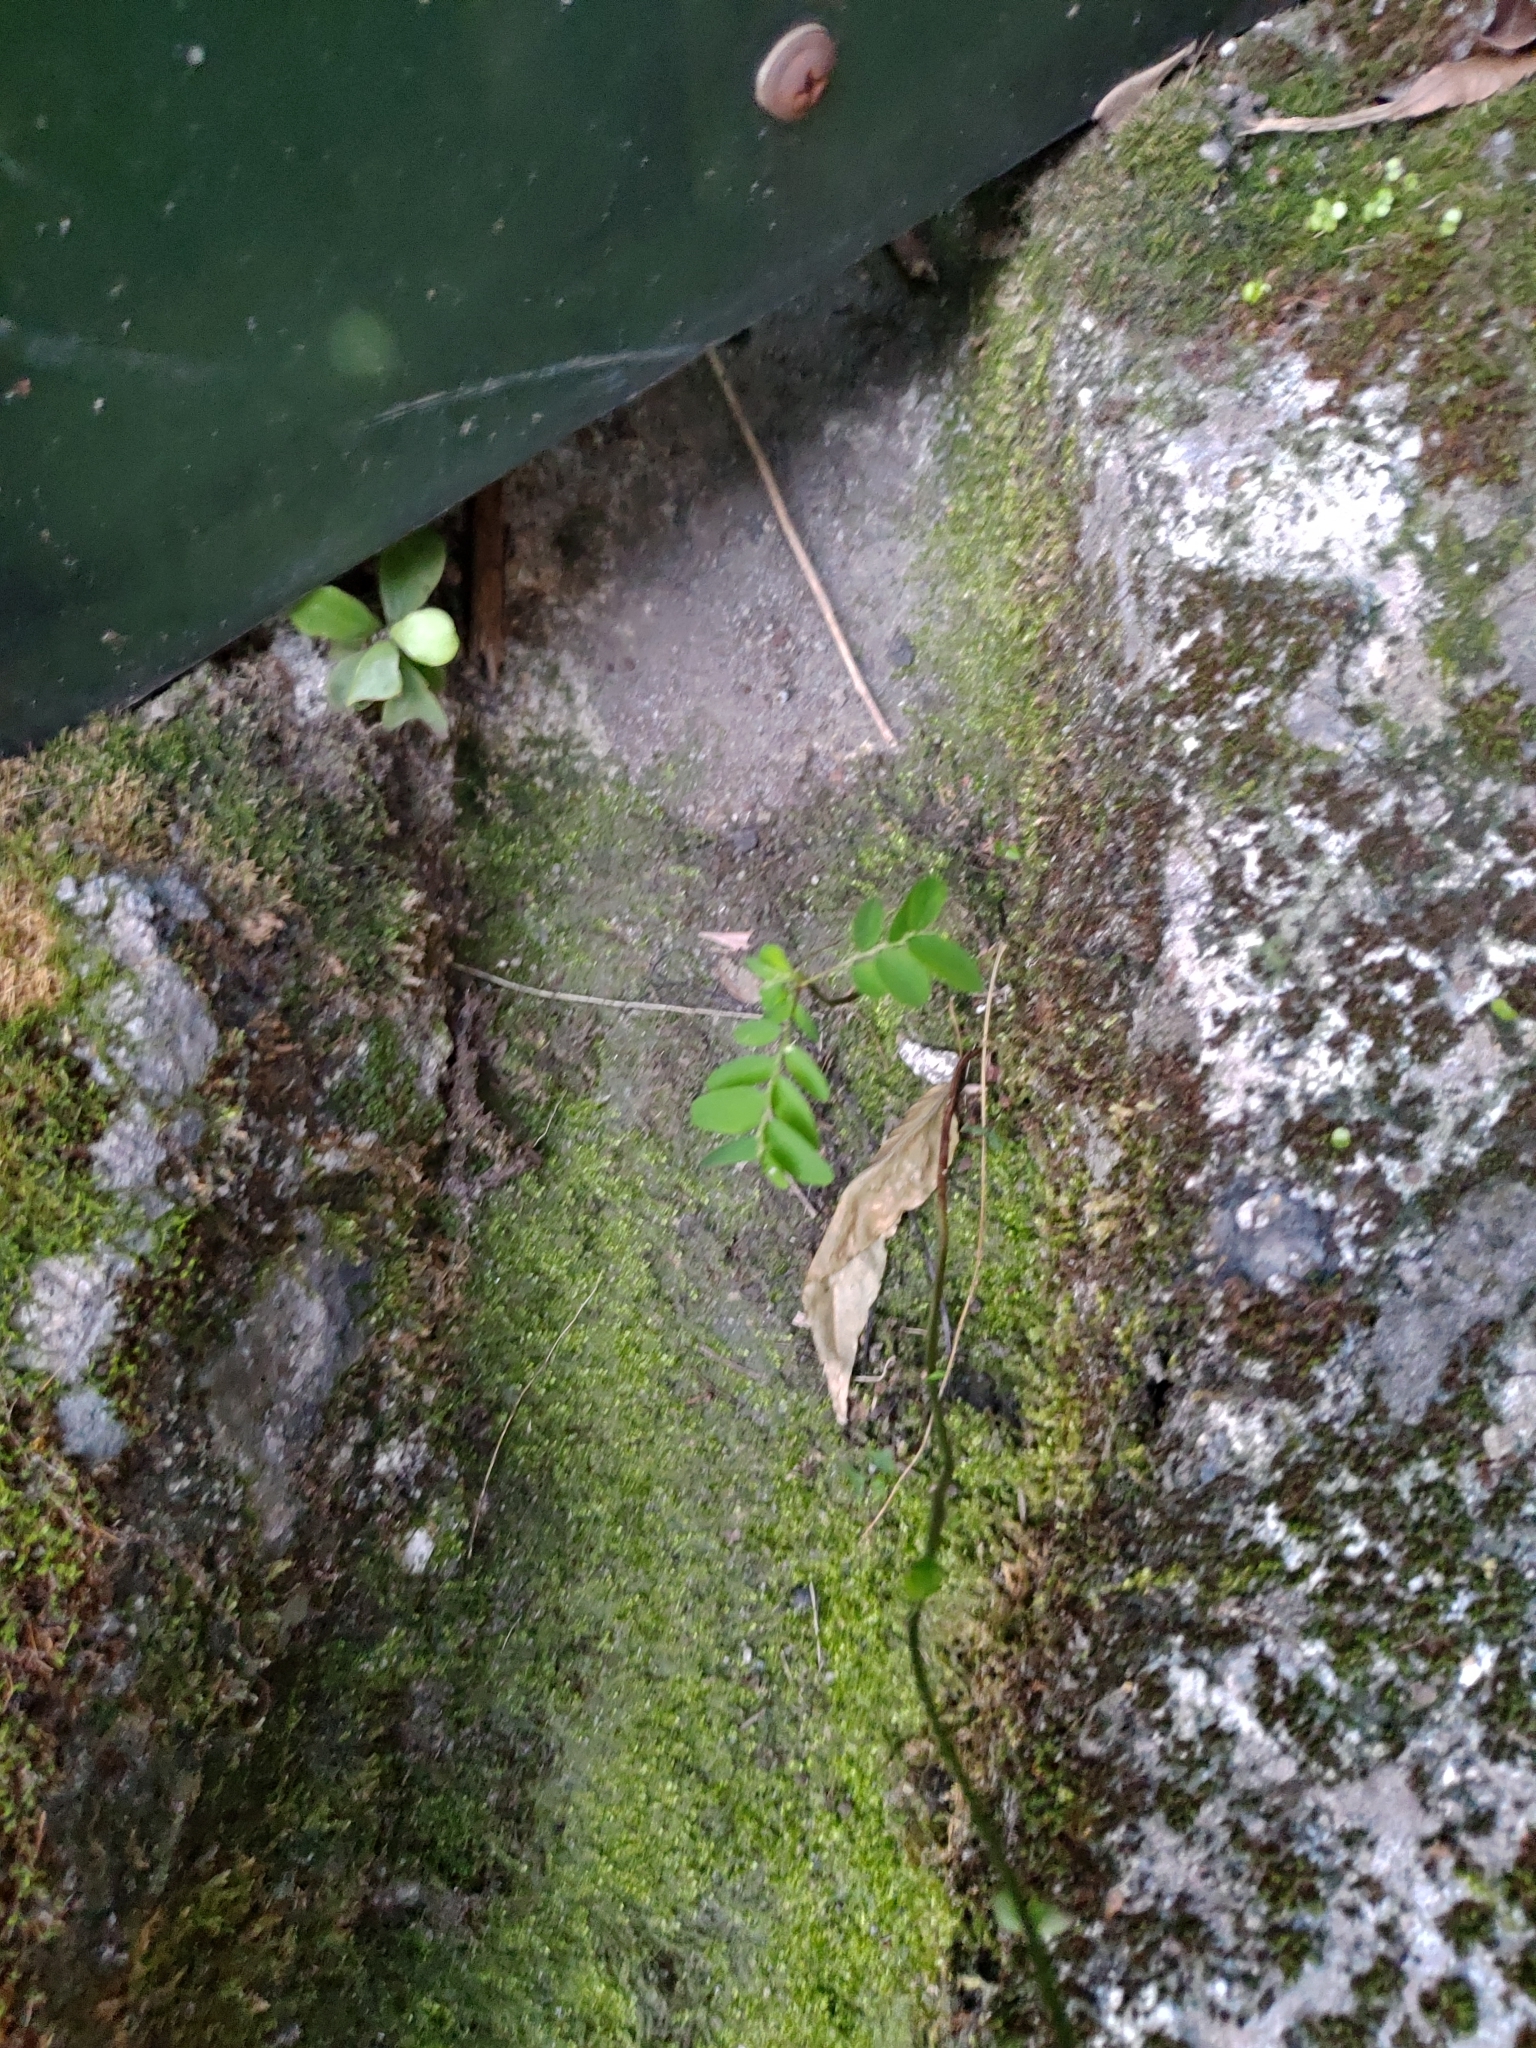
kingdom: Plantae
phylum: Tracheophyta
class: Magnoliopsida
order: Malpighiales
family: Phyllanthaceae
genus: Phyllanthus
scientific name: Phyllanthus tenellus
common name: Mascarene island leaf-flower
